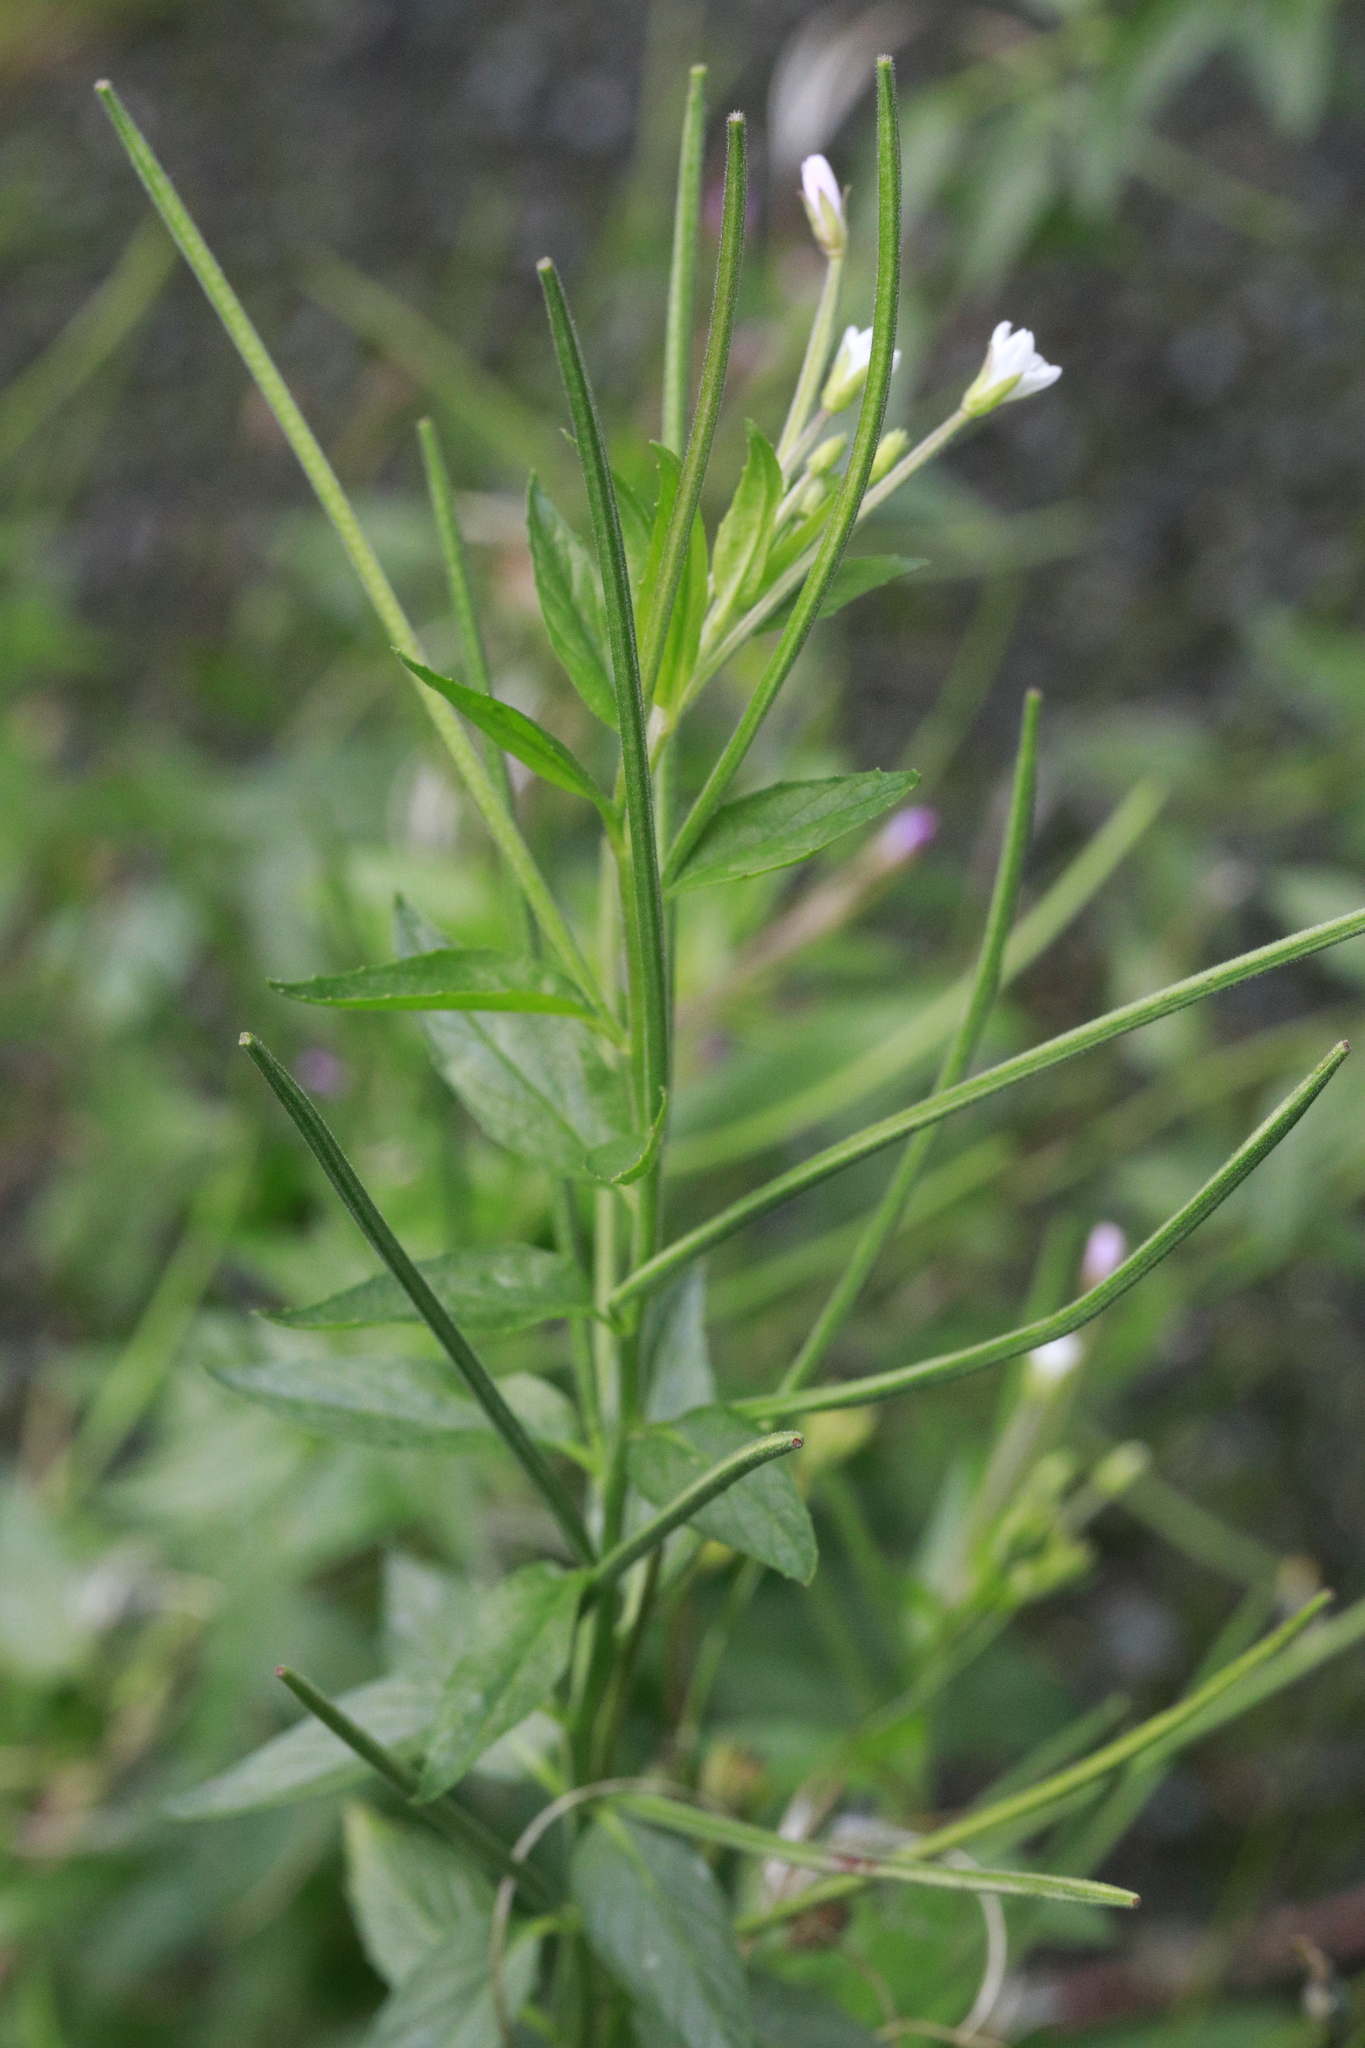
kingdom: Plantae
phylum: Tracheophyta
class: Magnoliopsida
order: Myrtales
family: Onagraceae
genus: Epilobium
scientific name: Epilobium ciliatum
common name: American willowherb
